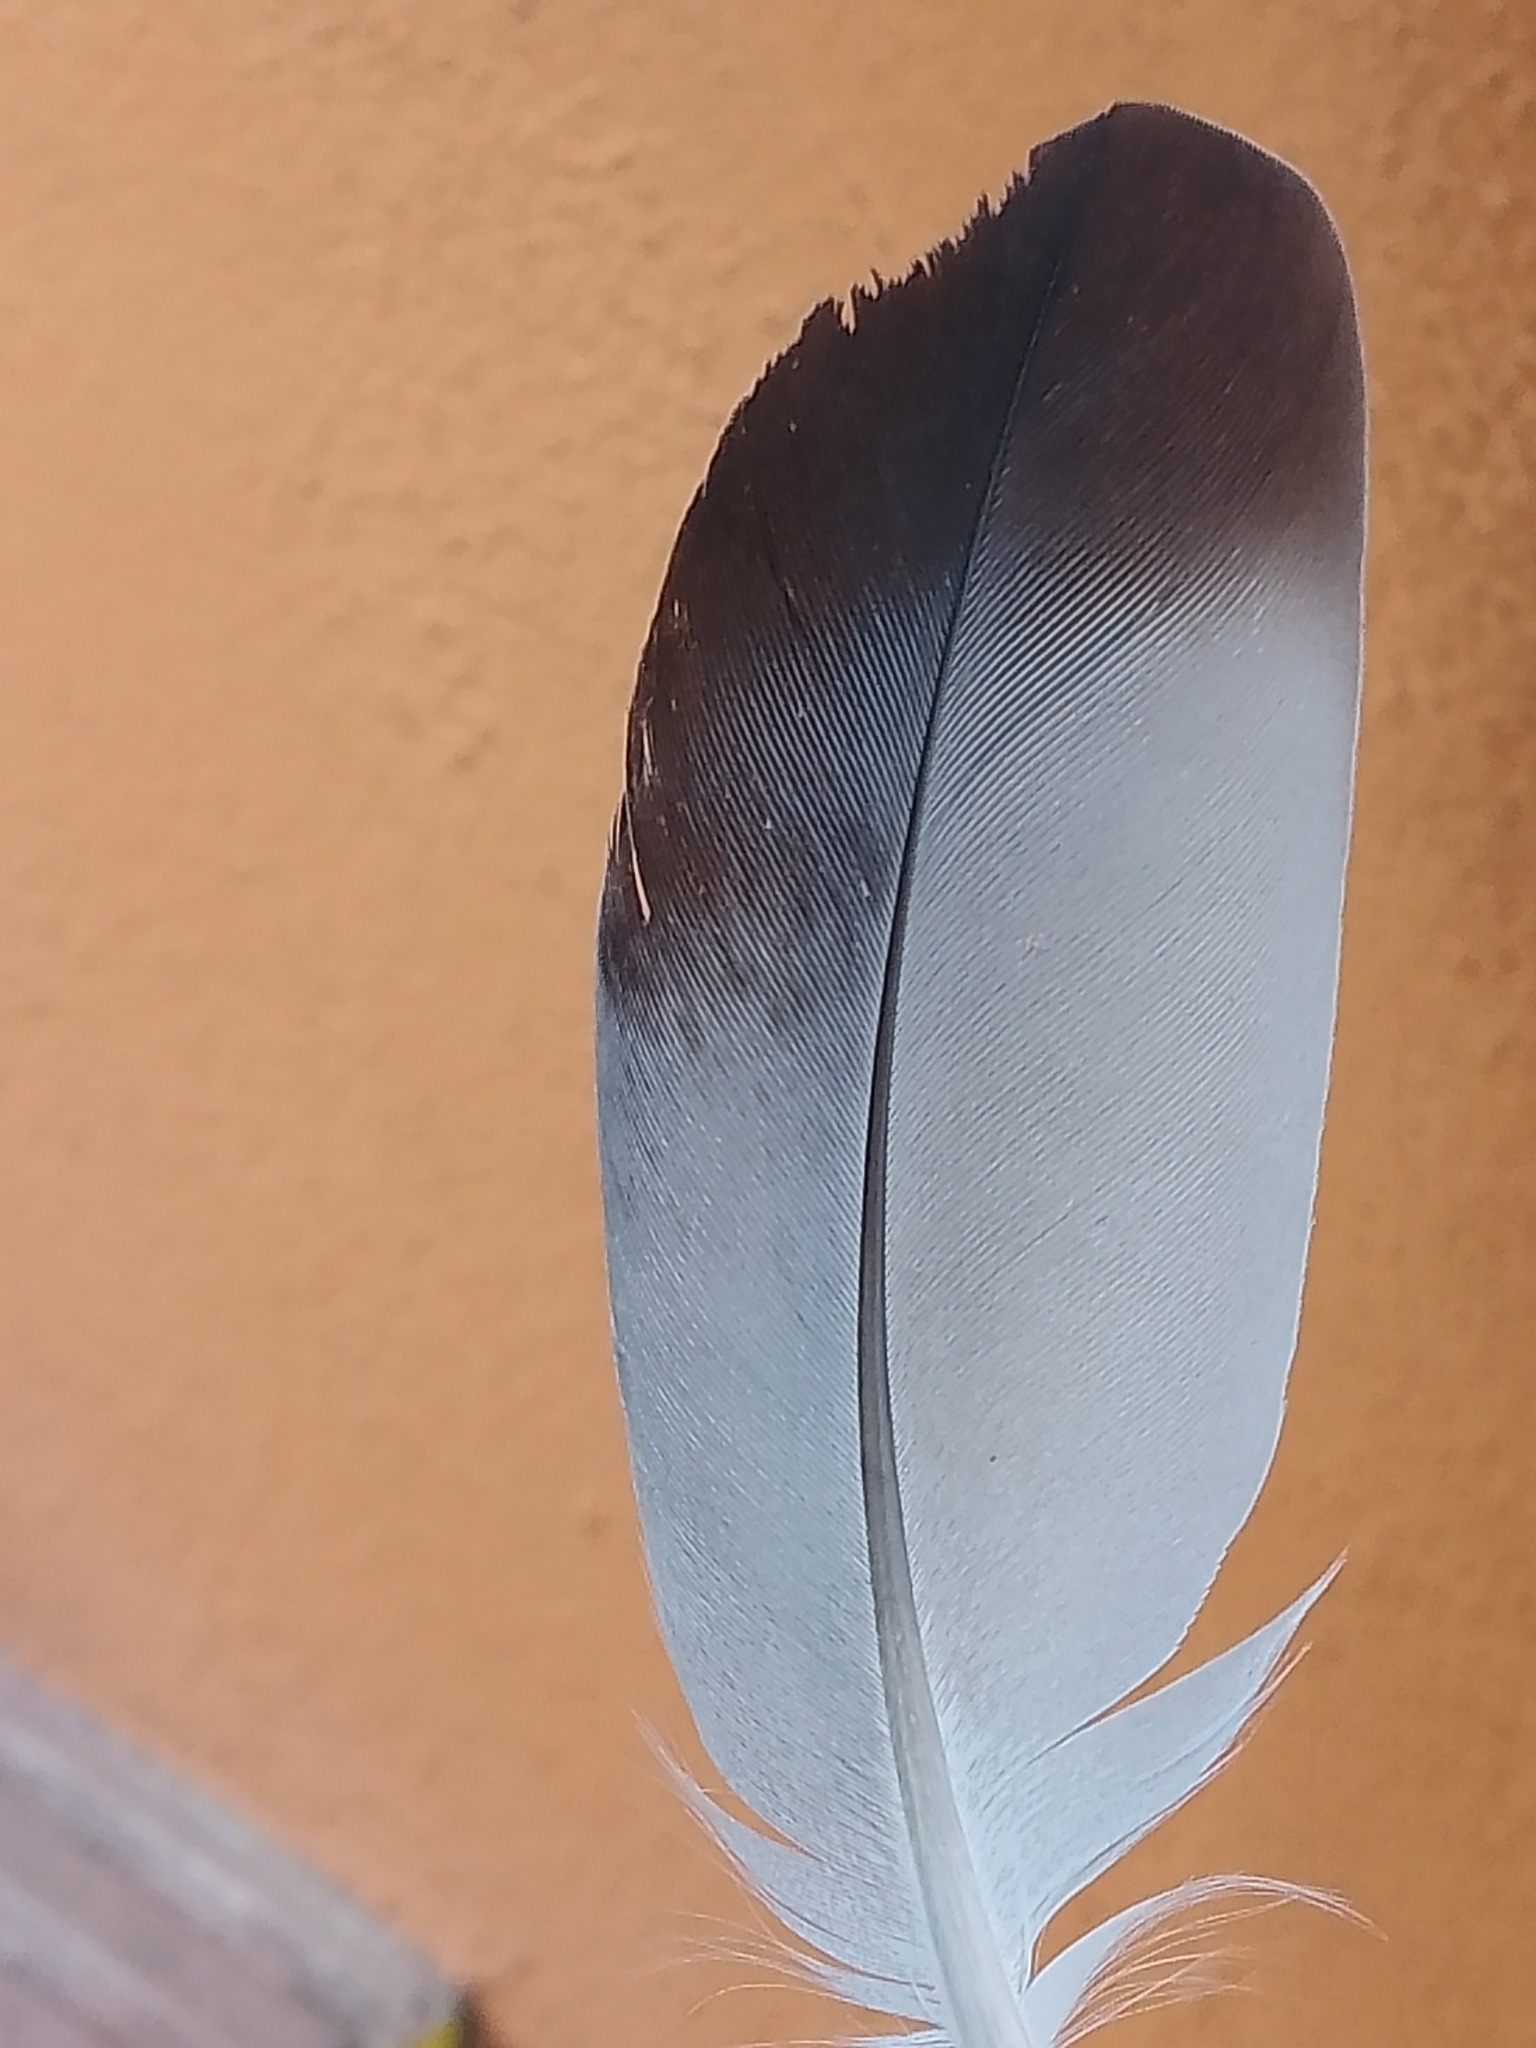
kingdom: Animalia
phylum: Chordata
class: Aves
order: Columbiformes
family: Columbidae
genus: Columba
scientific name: Columba livia
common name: Rock pigeon
